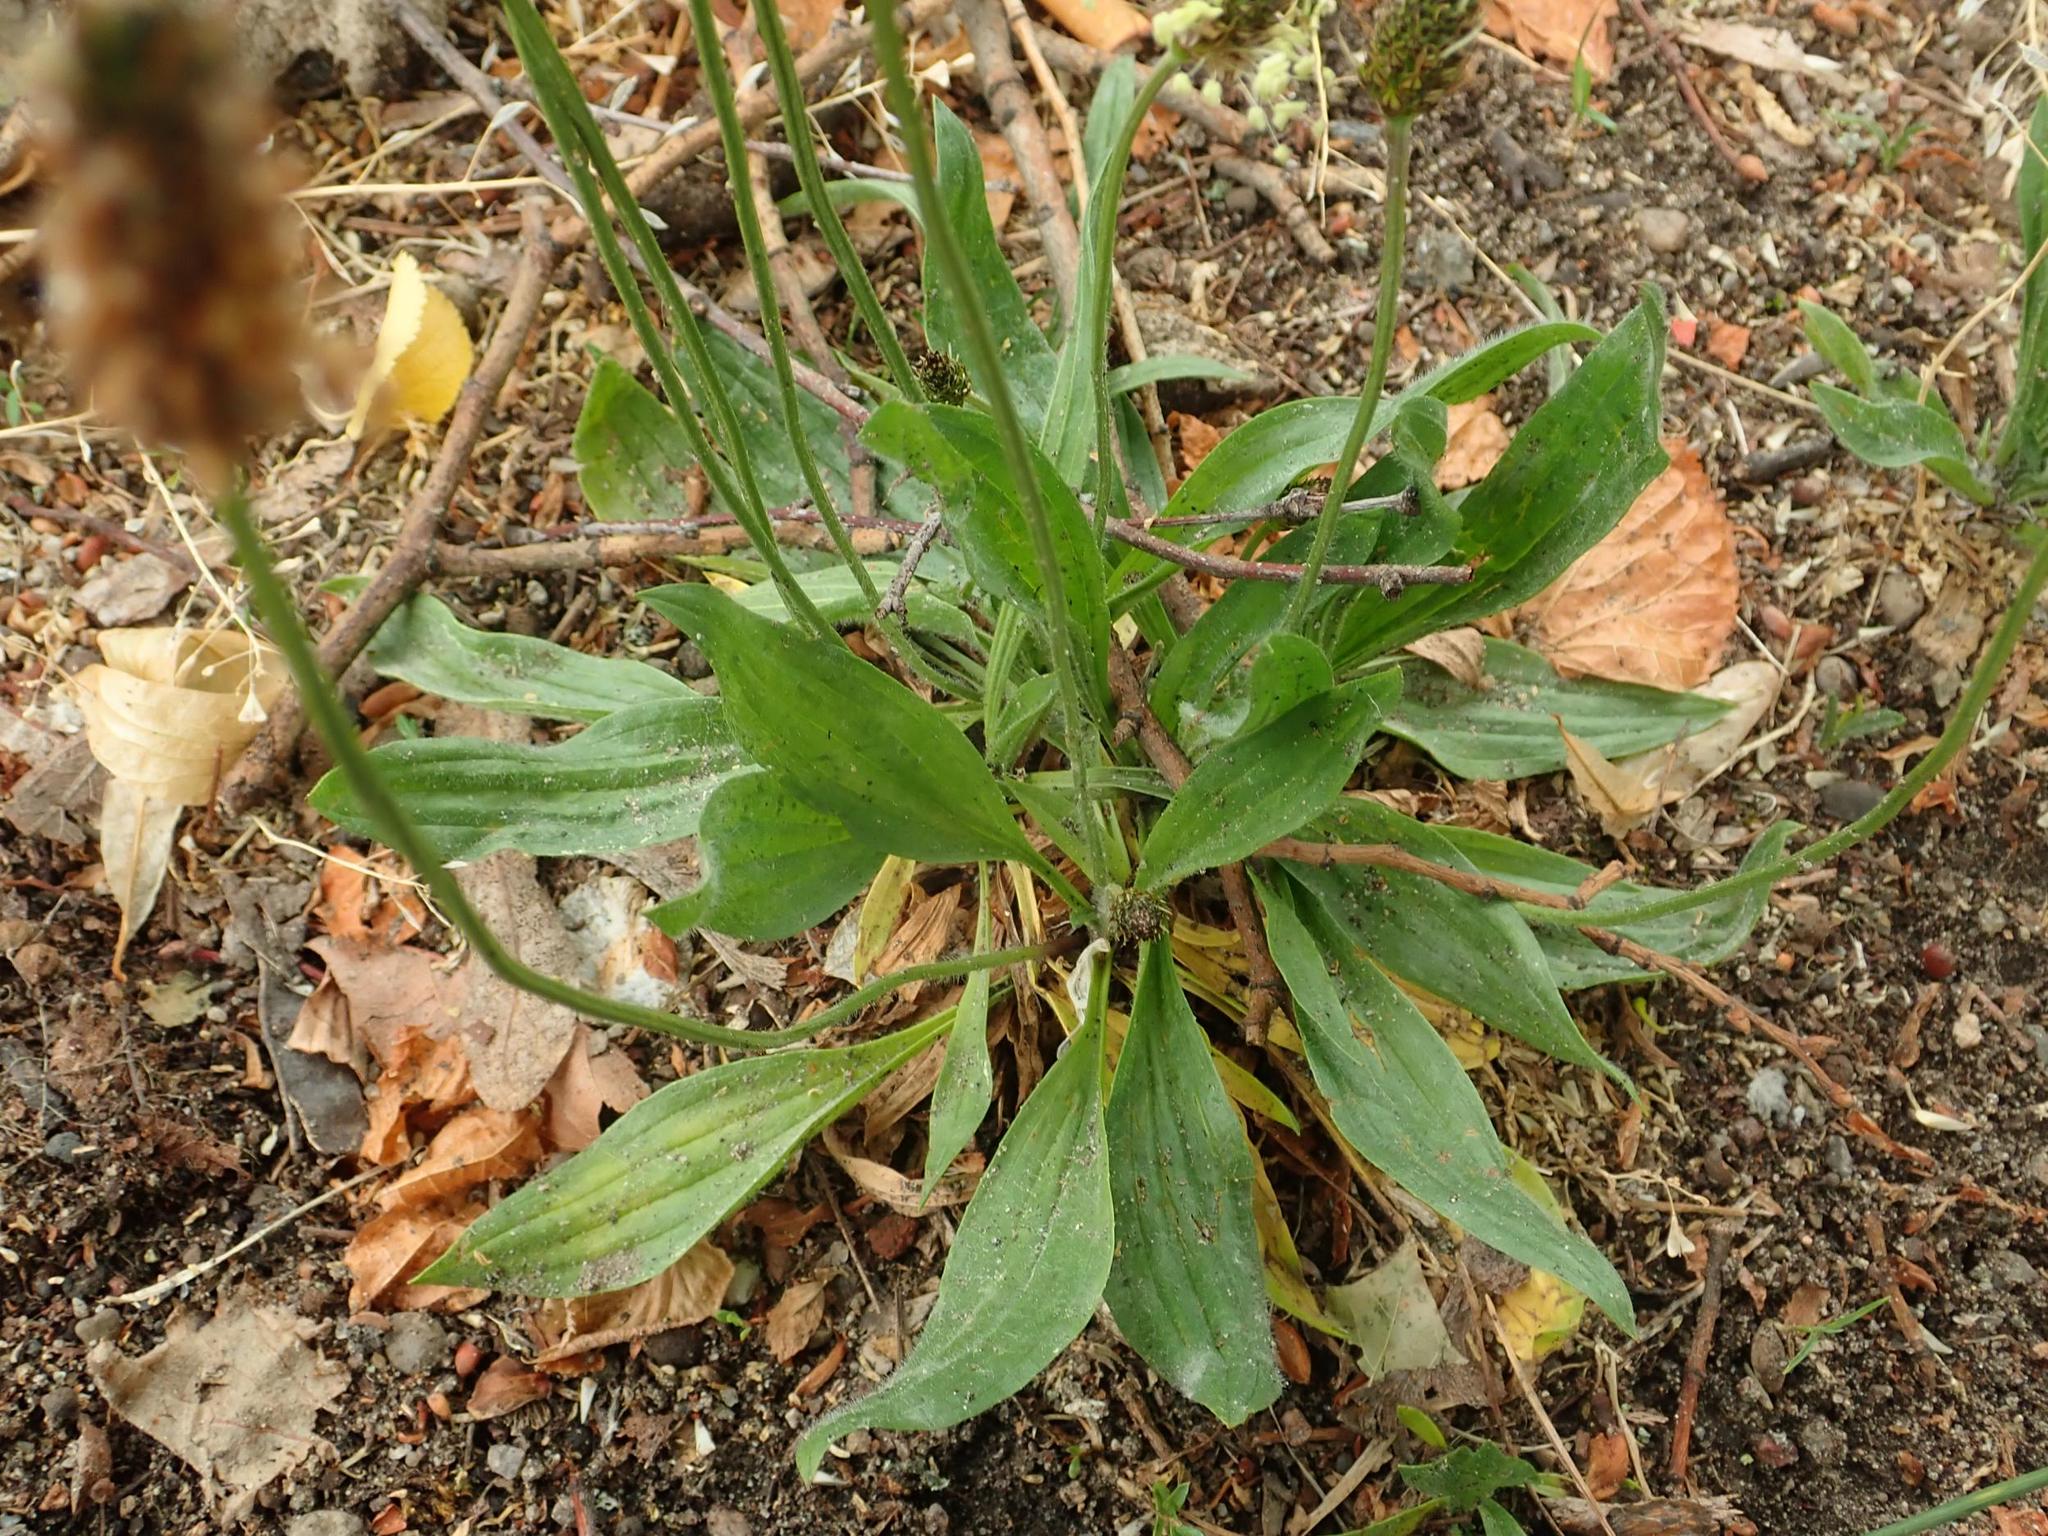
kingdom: Plantae
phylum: Tracheophyta
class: Magnoliopsida
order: Lamiales
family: Plantaginaceae
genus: Plantago
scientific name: Plantago lanceolata
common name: Ribwort plantain
